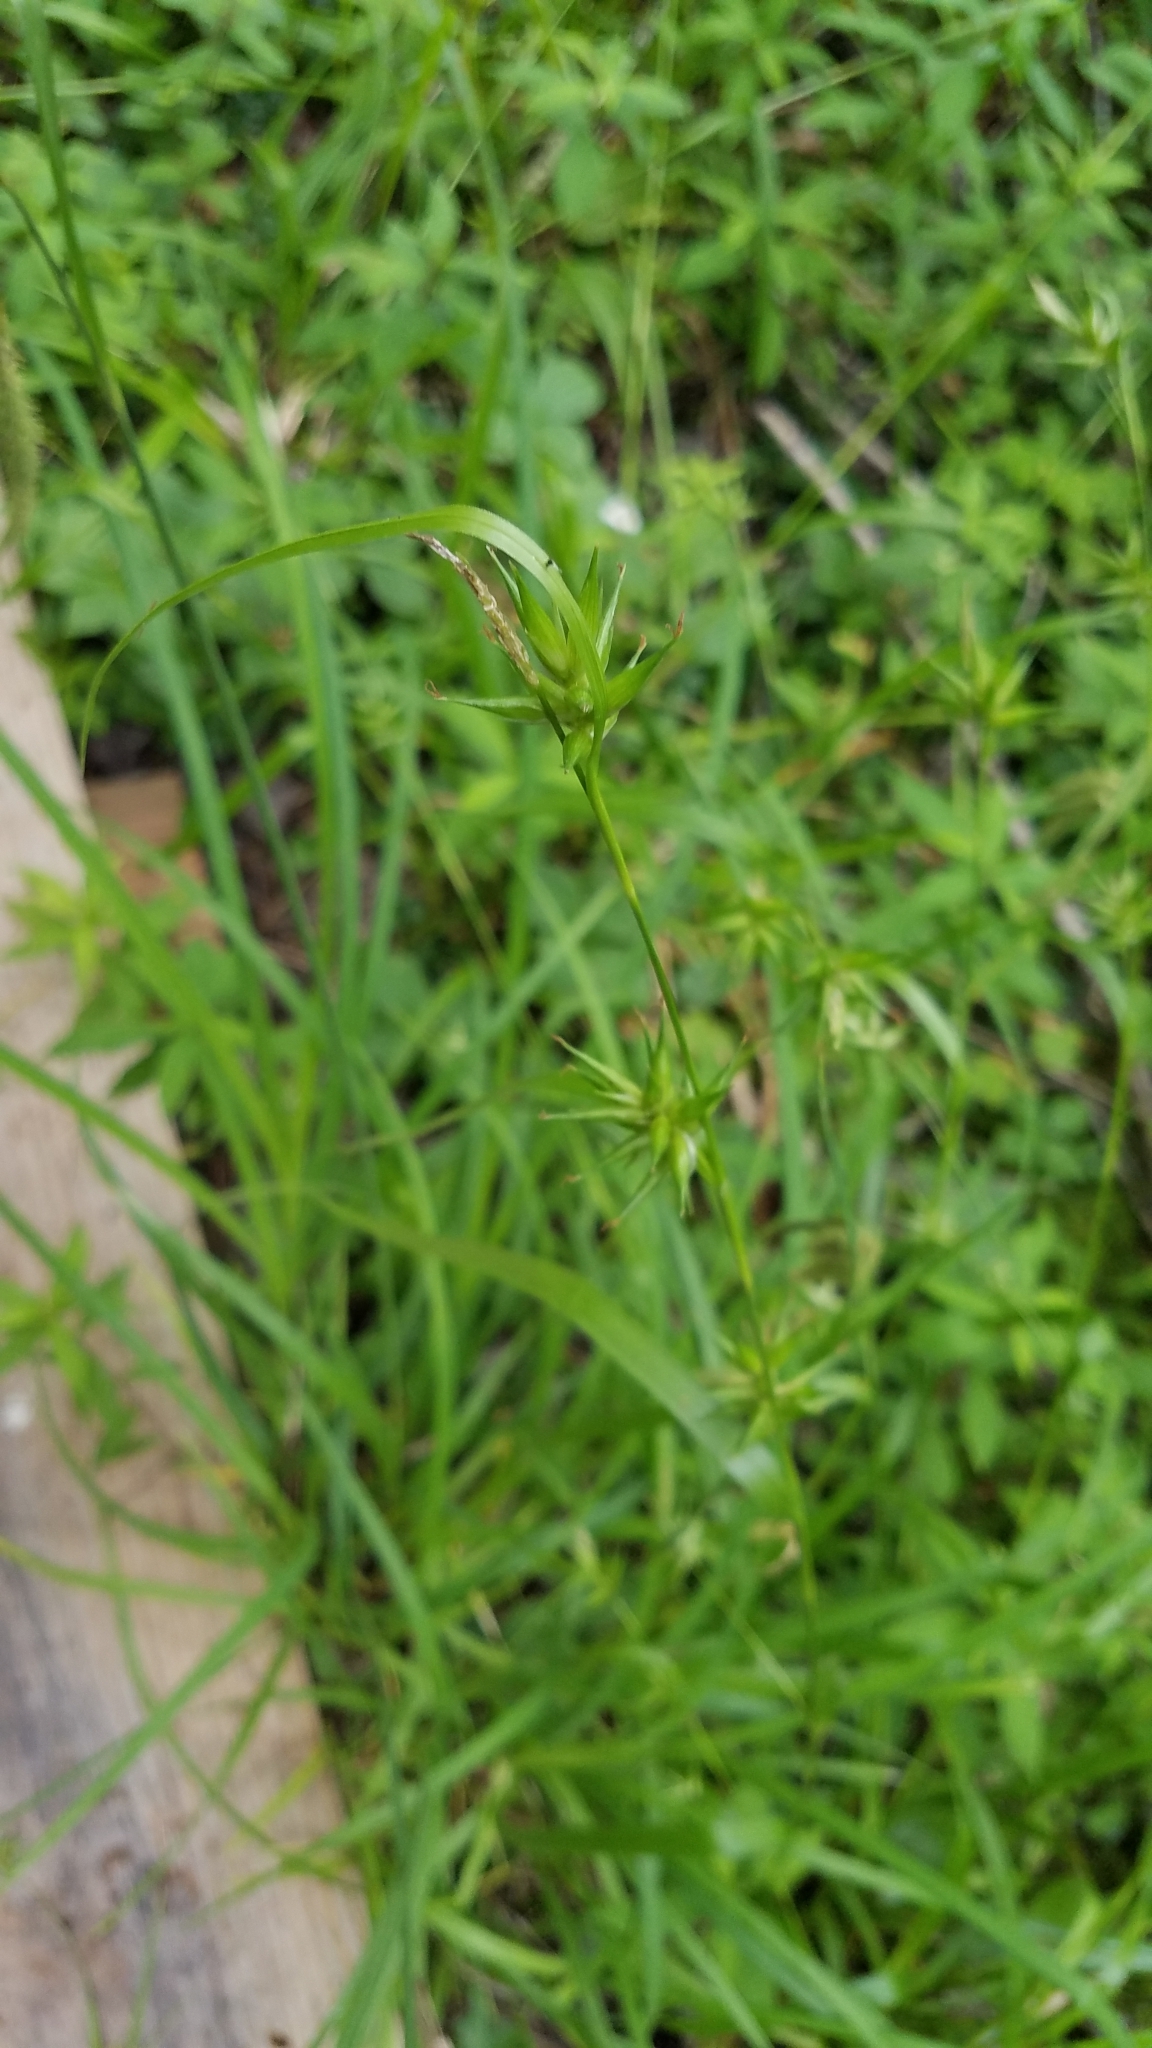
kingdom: Plantae
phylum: Tracheophyta
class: Liliopsida
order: Poales
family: Cyperaceae
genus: Carex
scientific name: Carex folliculata
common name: Northern long sedge
